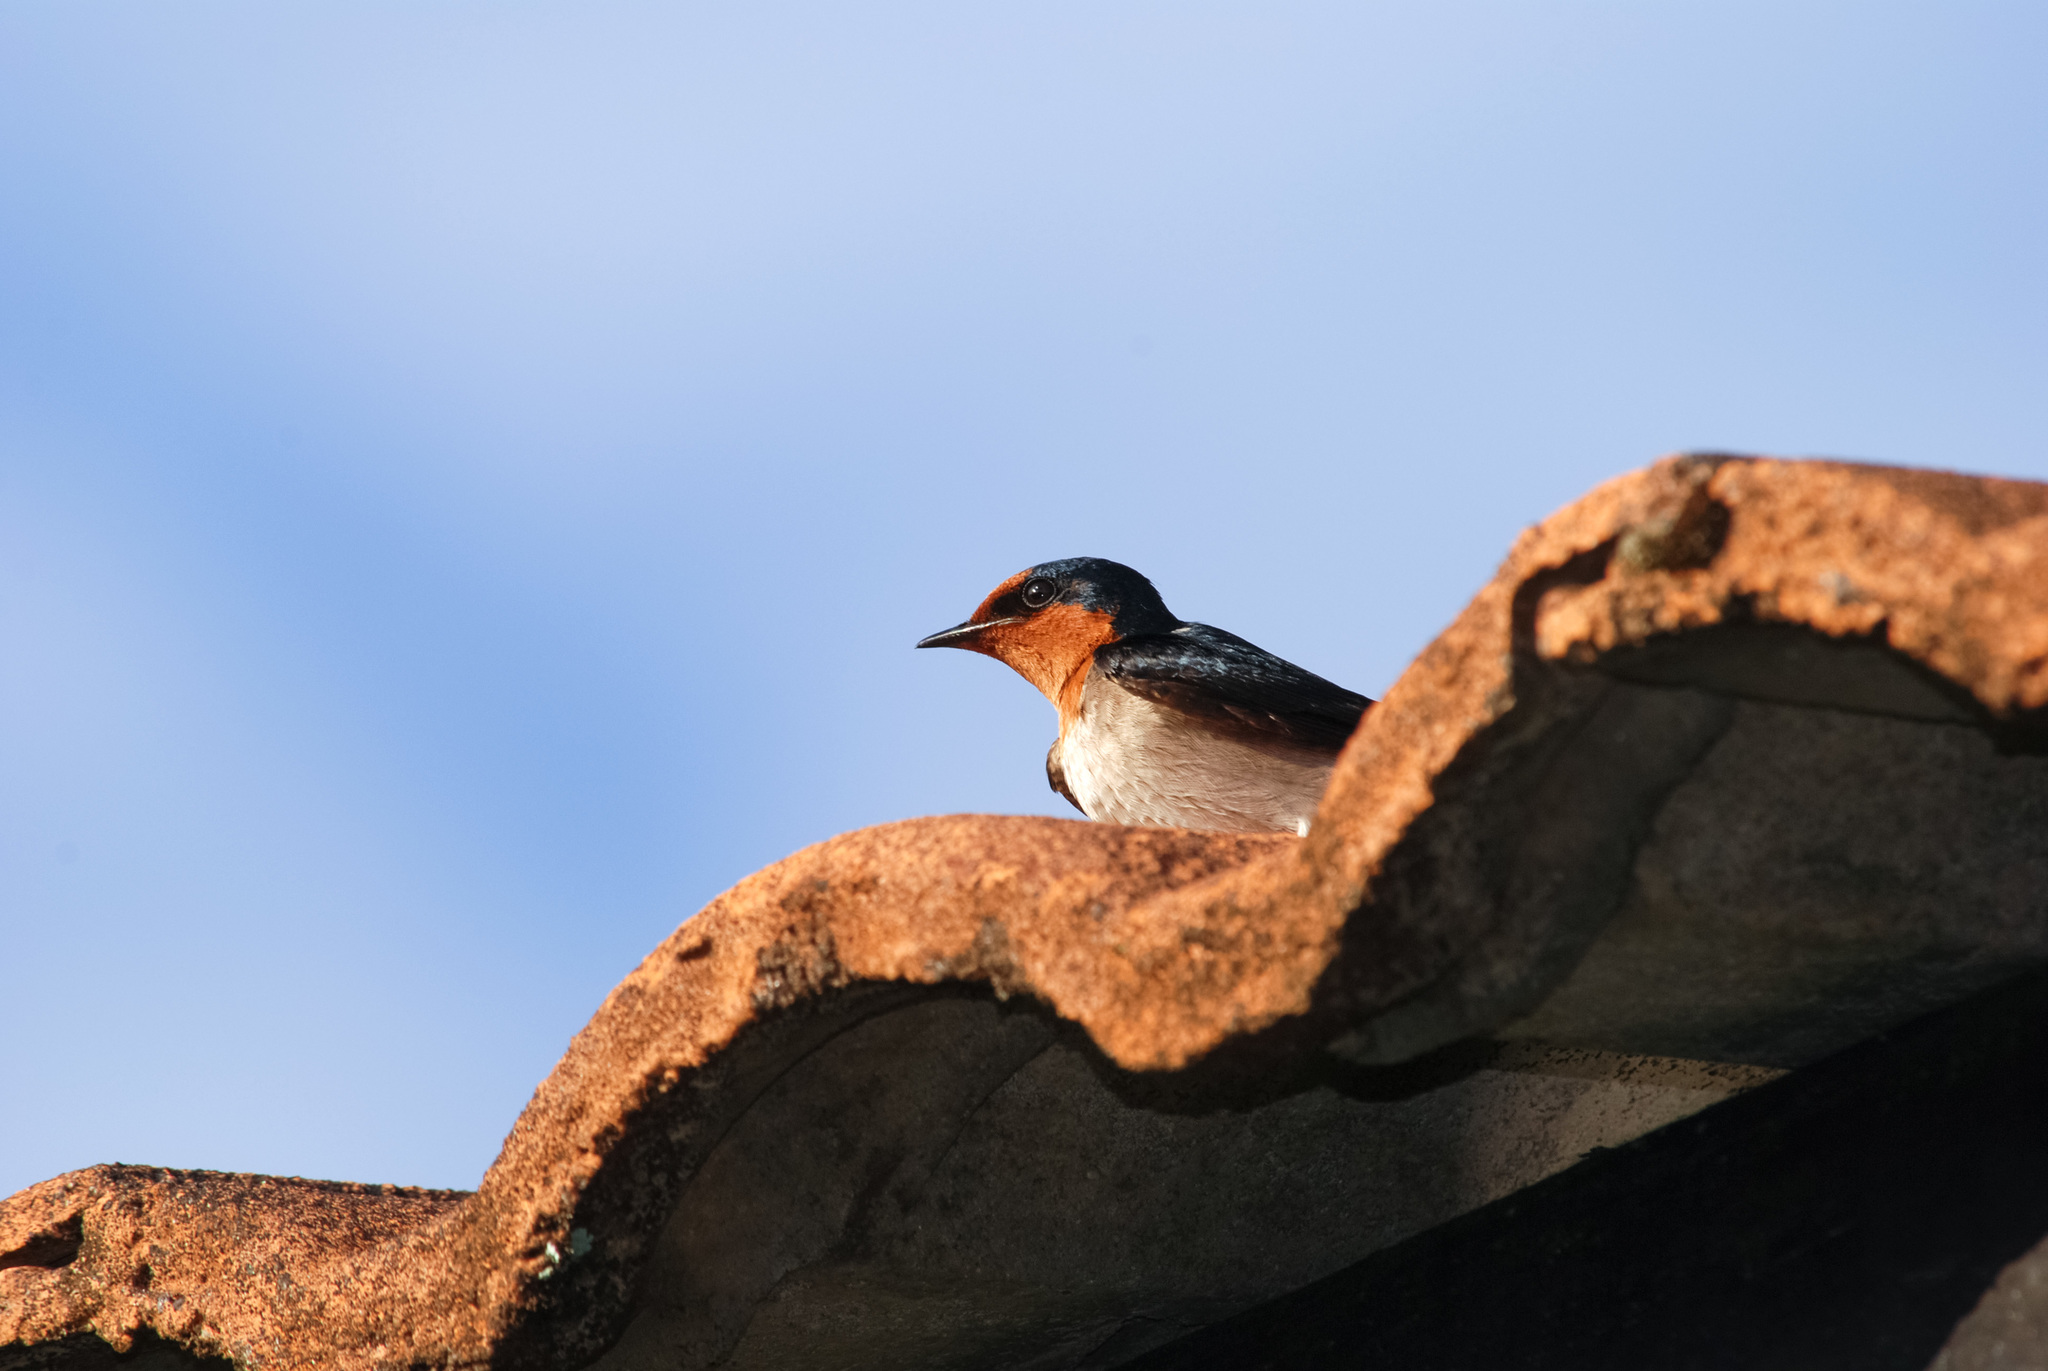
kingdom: Animalia
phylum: Chordata
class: Aves
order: Passeriformes
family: Hirundinidae
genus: Hirundo
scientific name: Hirundo tahitica
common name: Pacific swallow
